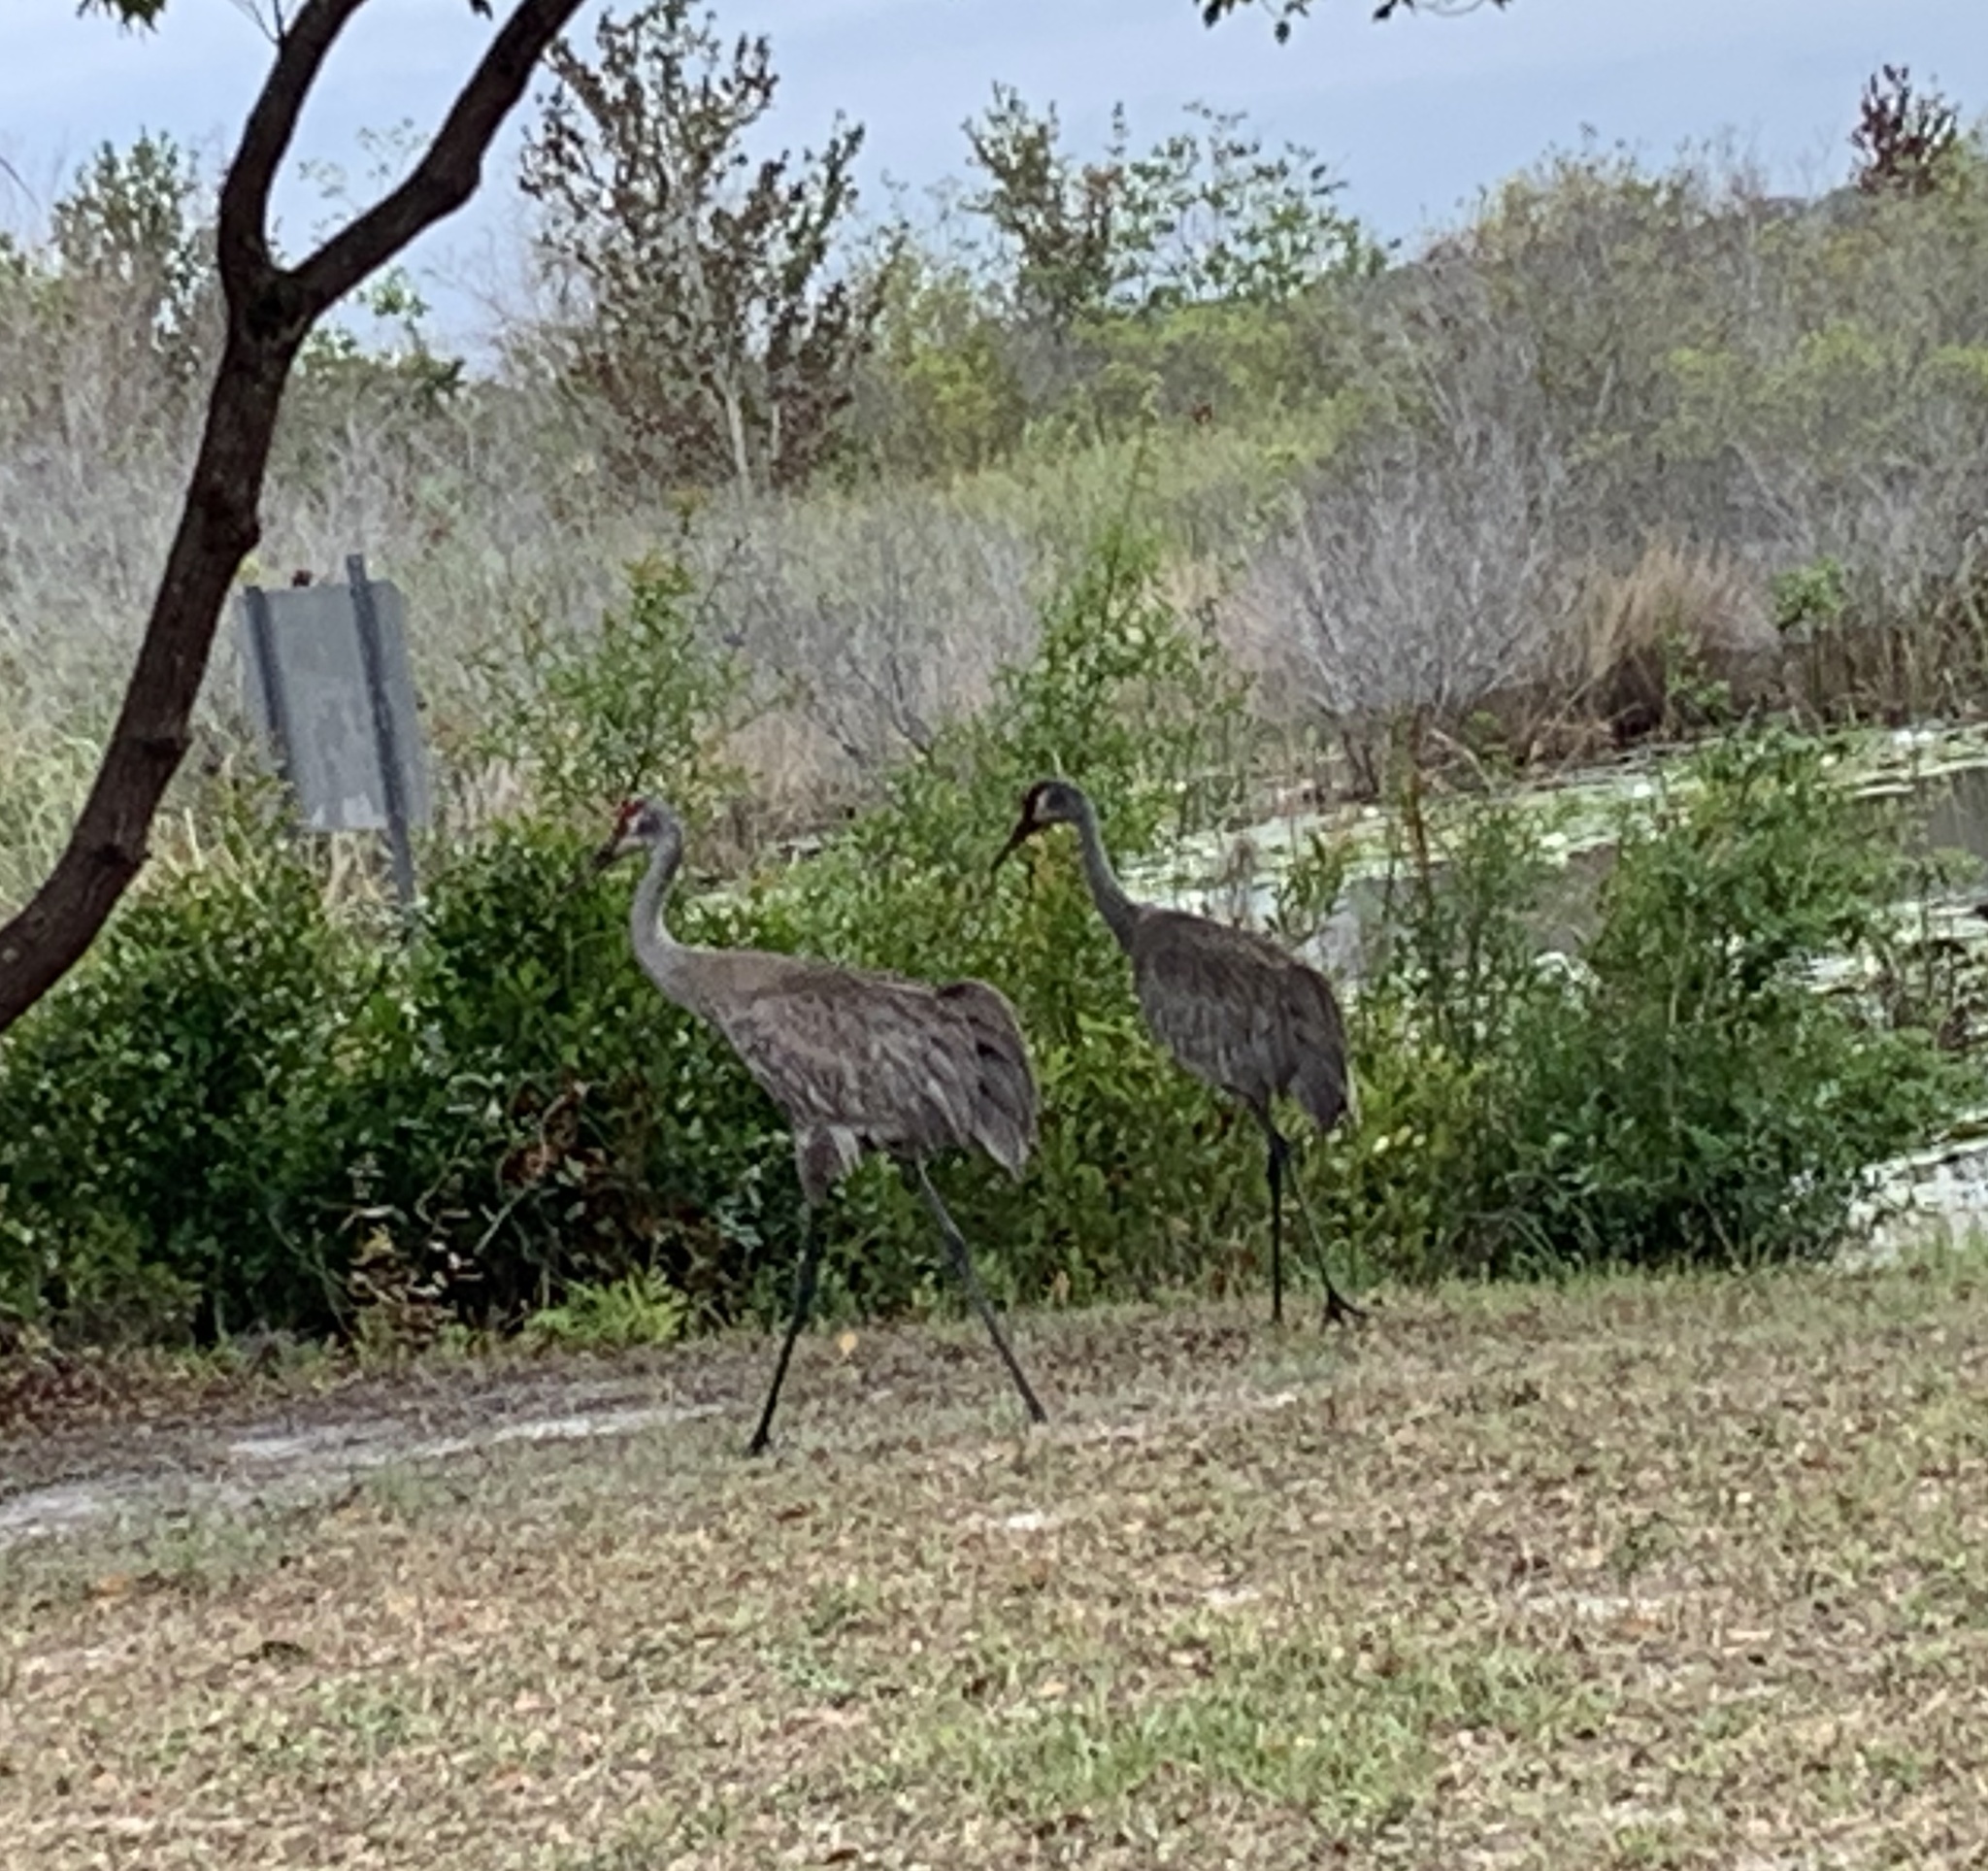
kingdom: Animalia
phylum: Chordata
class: Aves
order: Gruiformes
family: Gruidae
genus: Grus
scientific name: Grus canadensis
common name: Sandhill crane
